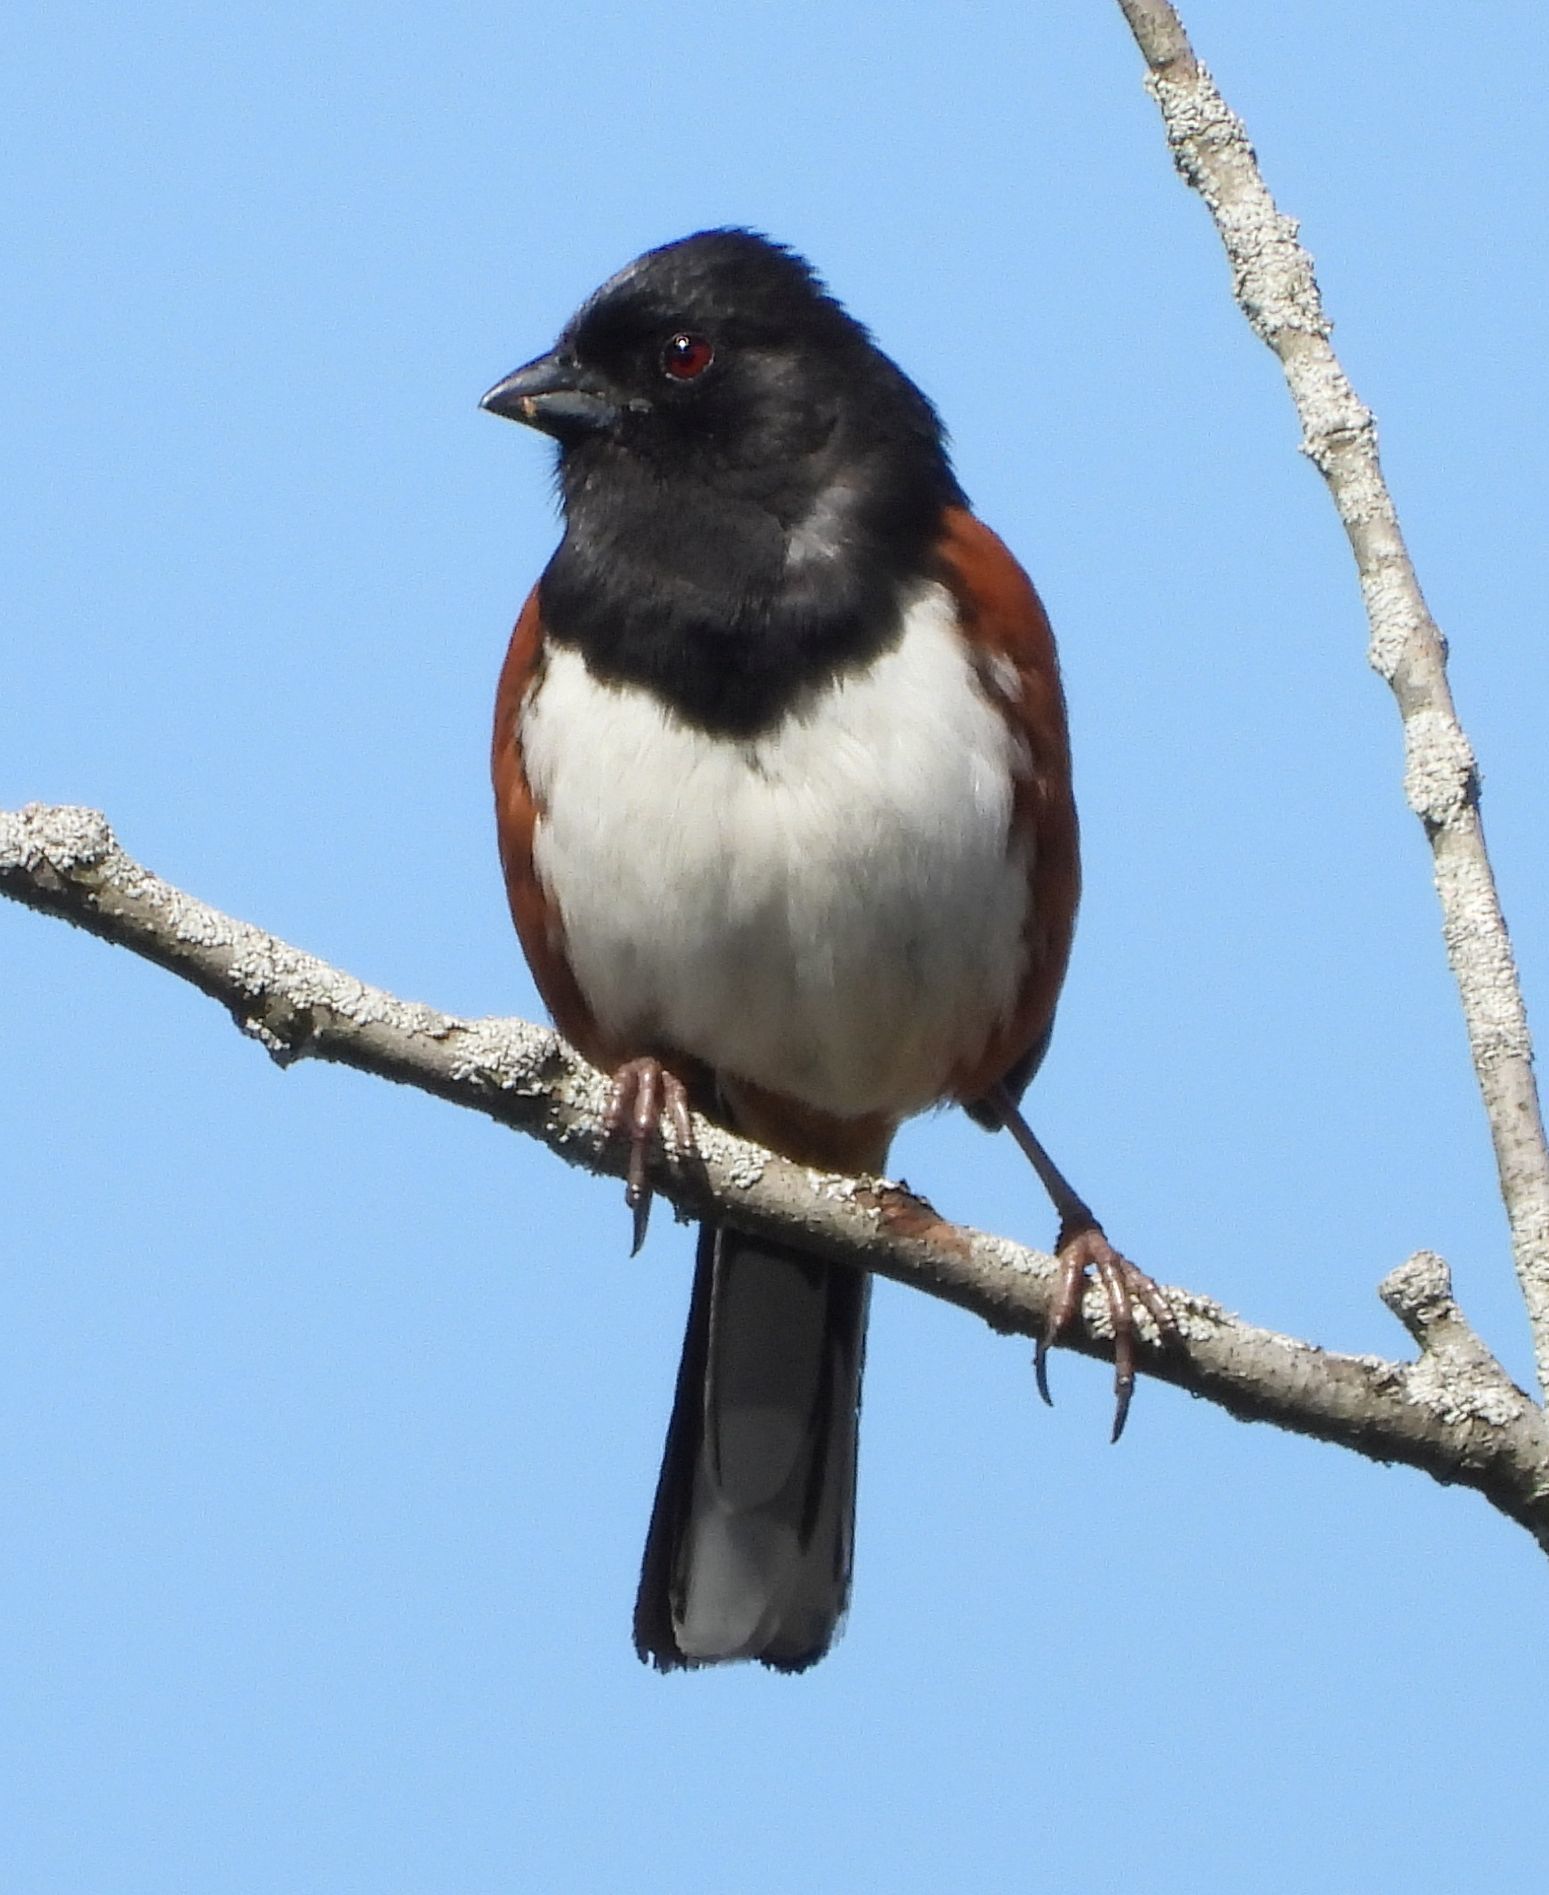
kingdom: Animalia
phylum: Chordata
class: Aves
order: Passeriformes
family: Passerellidae
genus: Pipilo
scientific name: Pipilo erythrophthalmus
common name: Eastern towhee
